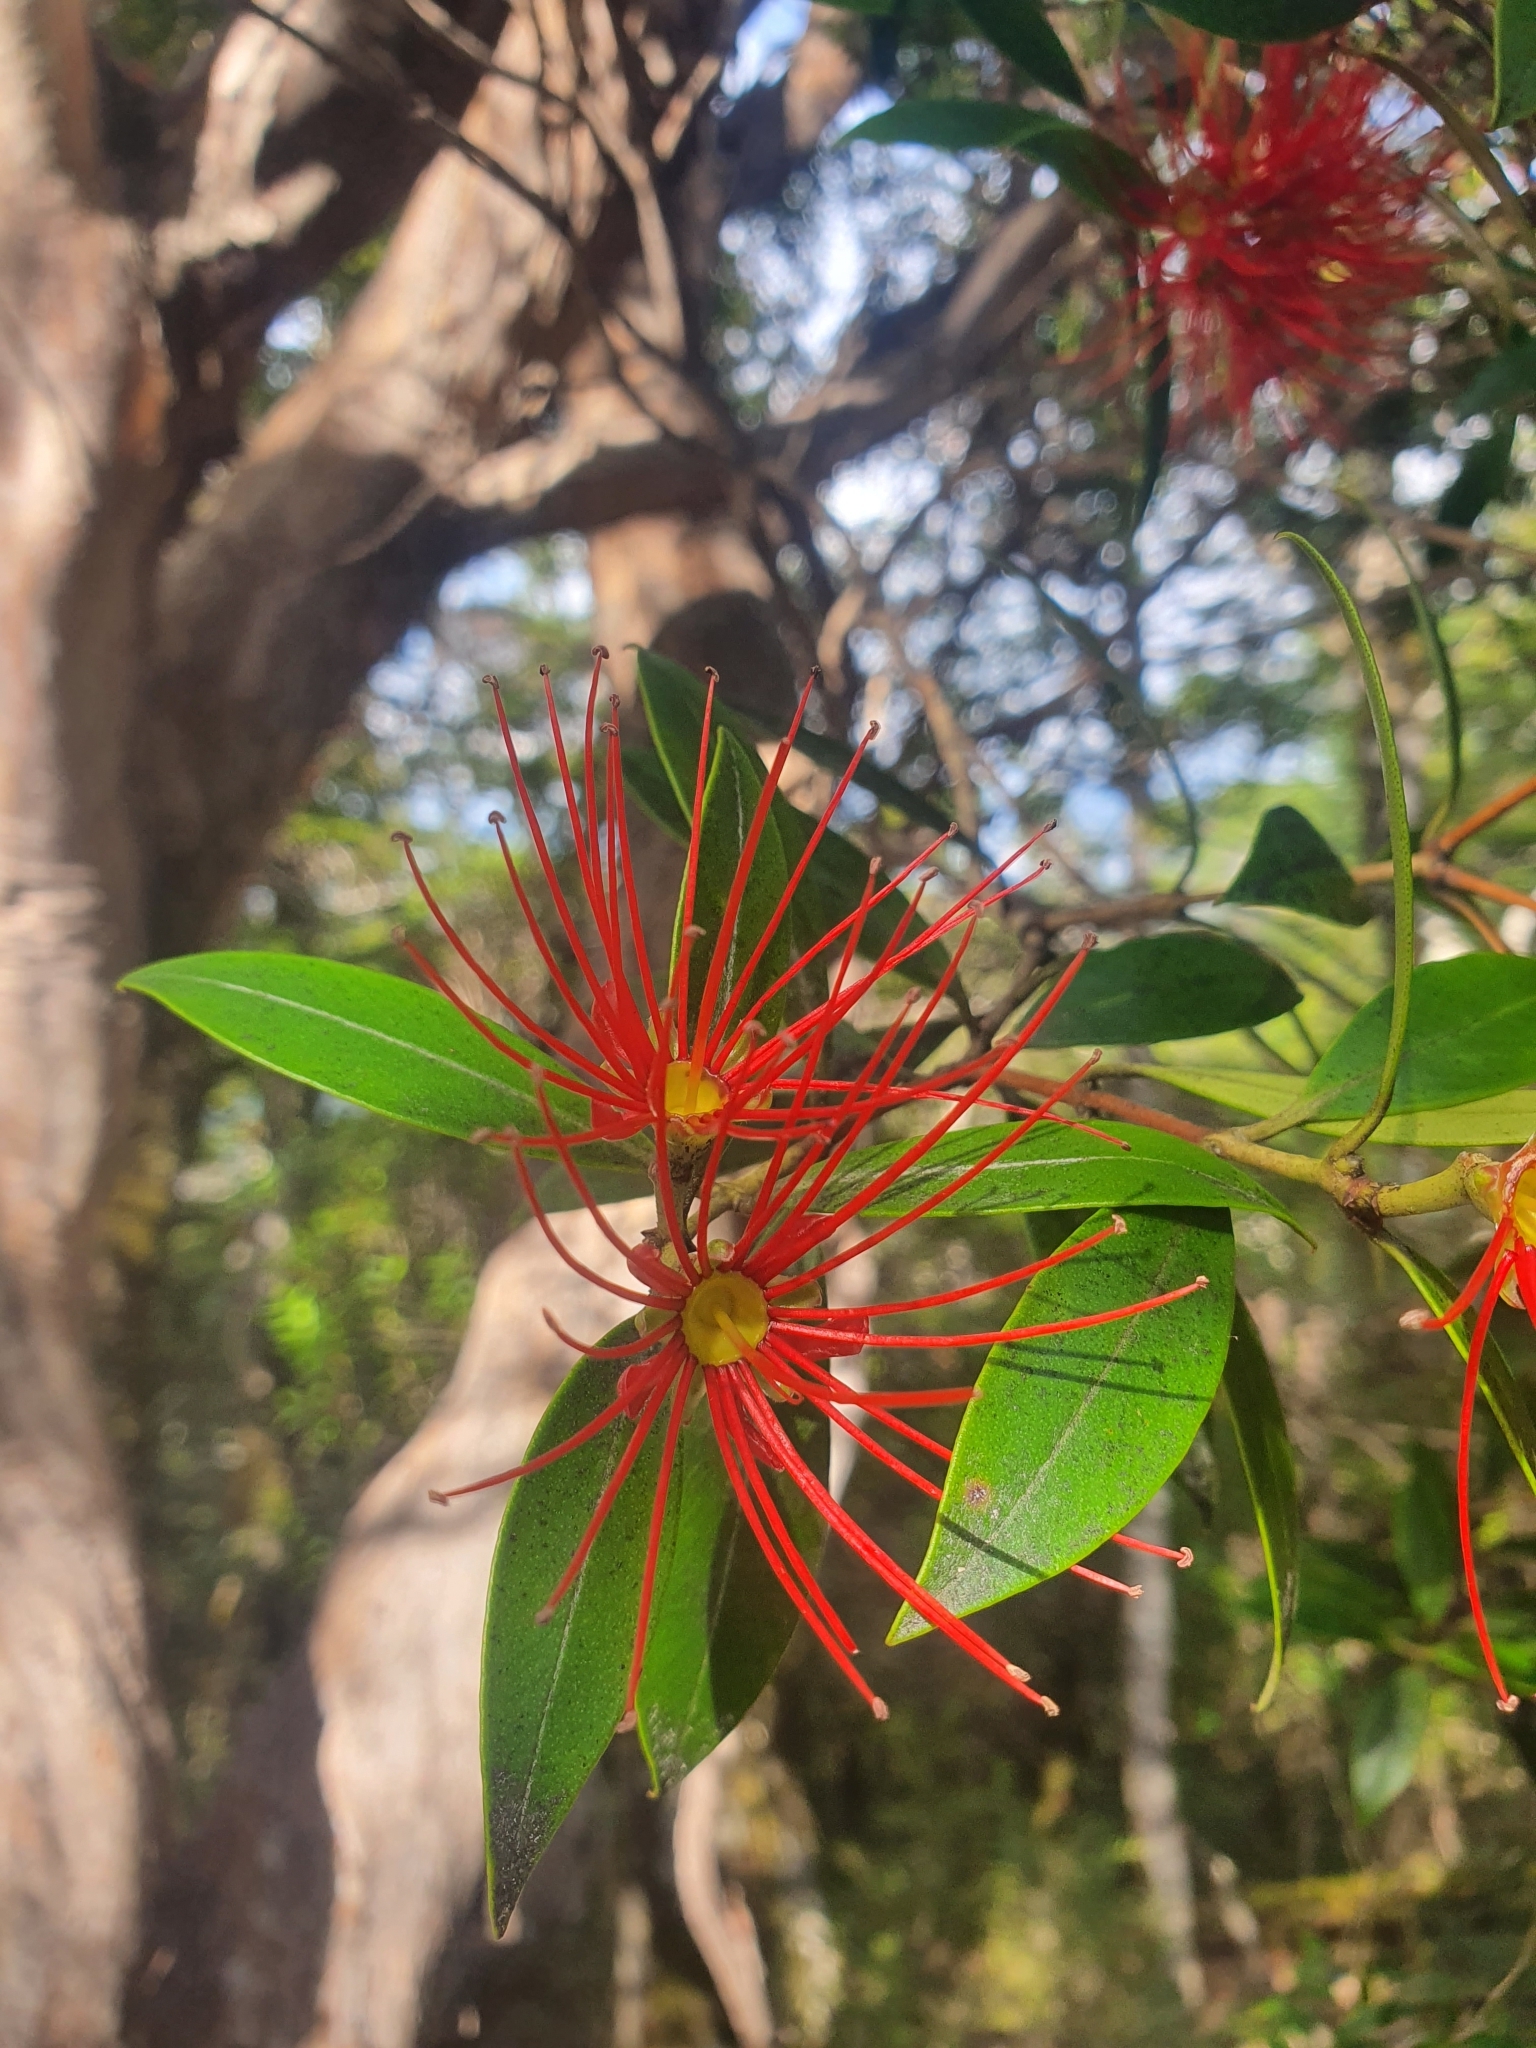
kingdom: Plantae
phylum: Tracheophyta
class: Magnoliopsida
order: Myrtales
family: Myrtaceae
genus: Metrosideros
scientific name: Metrosideros umbellata
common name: Southern rata
